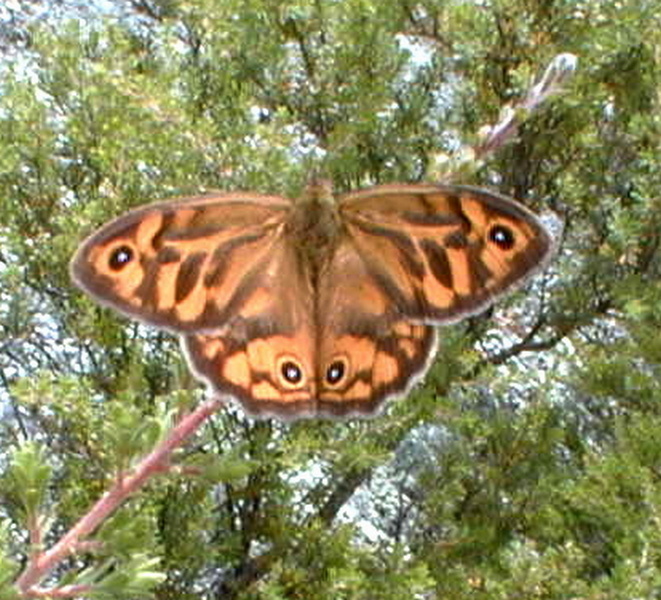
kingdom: Animalia
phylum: Arthropoda
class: Insecta
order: Lepidoptera
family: Nymphalidae
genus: Heteronympha
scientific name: Heteronympha merope
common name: Common brown
